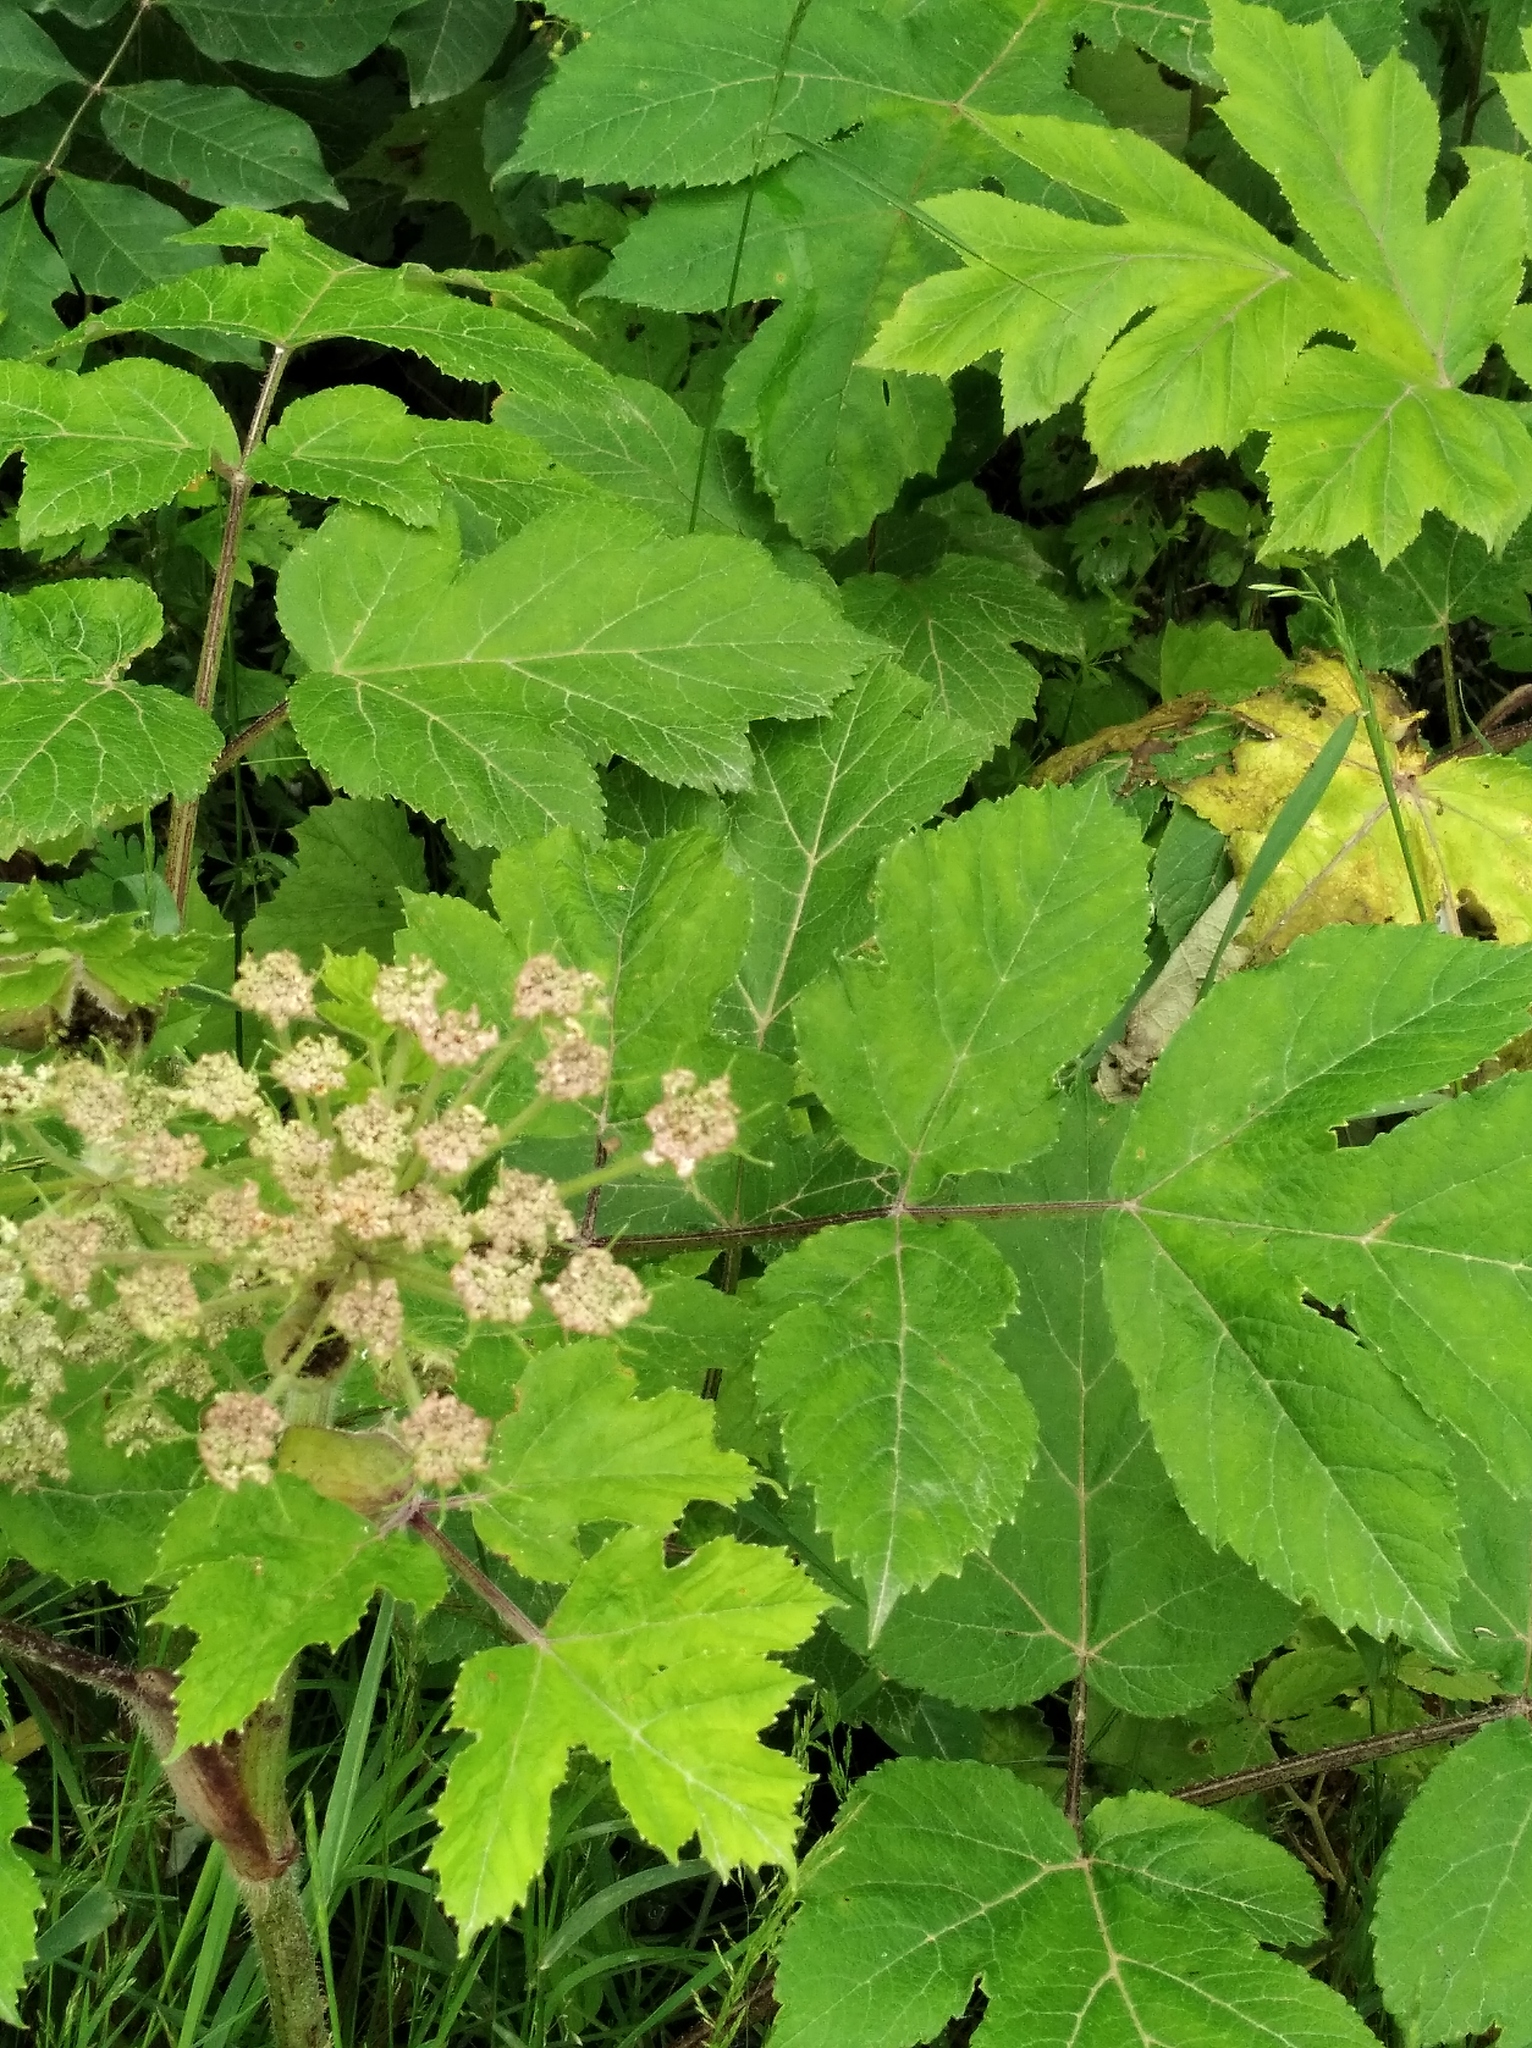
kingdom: Plantae
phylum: Tracheophyta
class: Magnoliopsida
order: Apiales
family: Apiaceae
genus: Heracleum
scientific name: Heracleum dissectum
